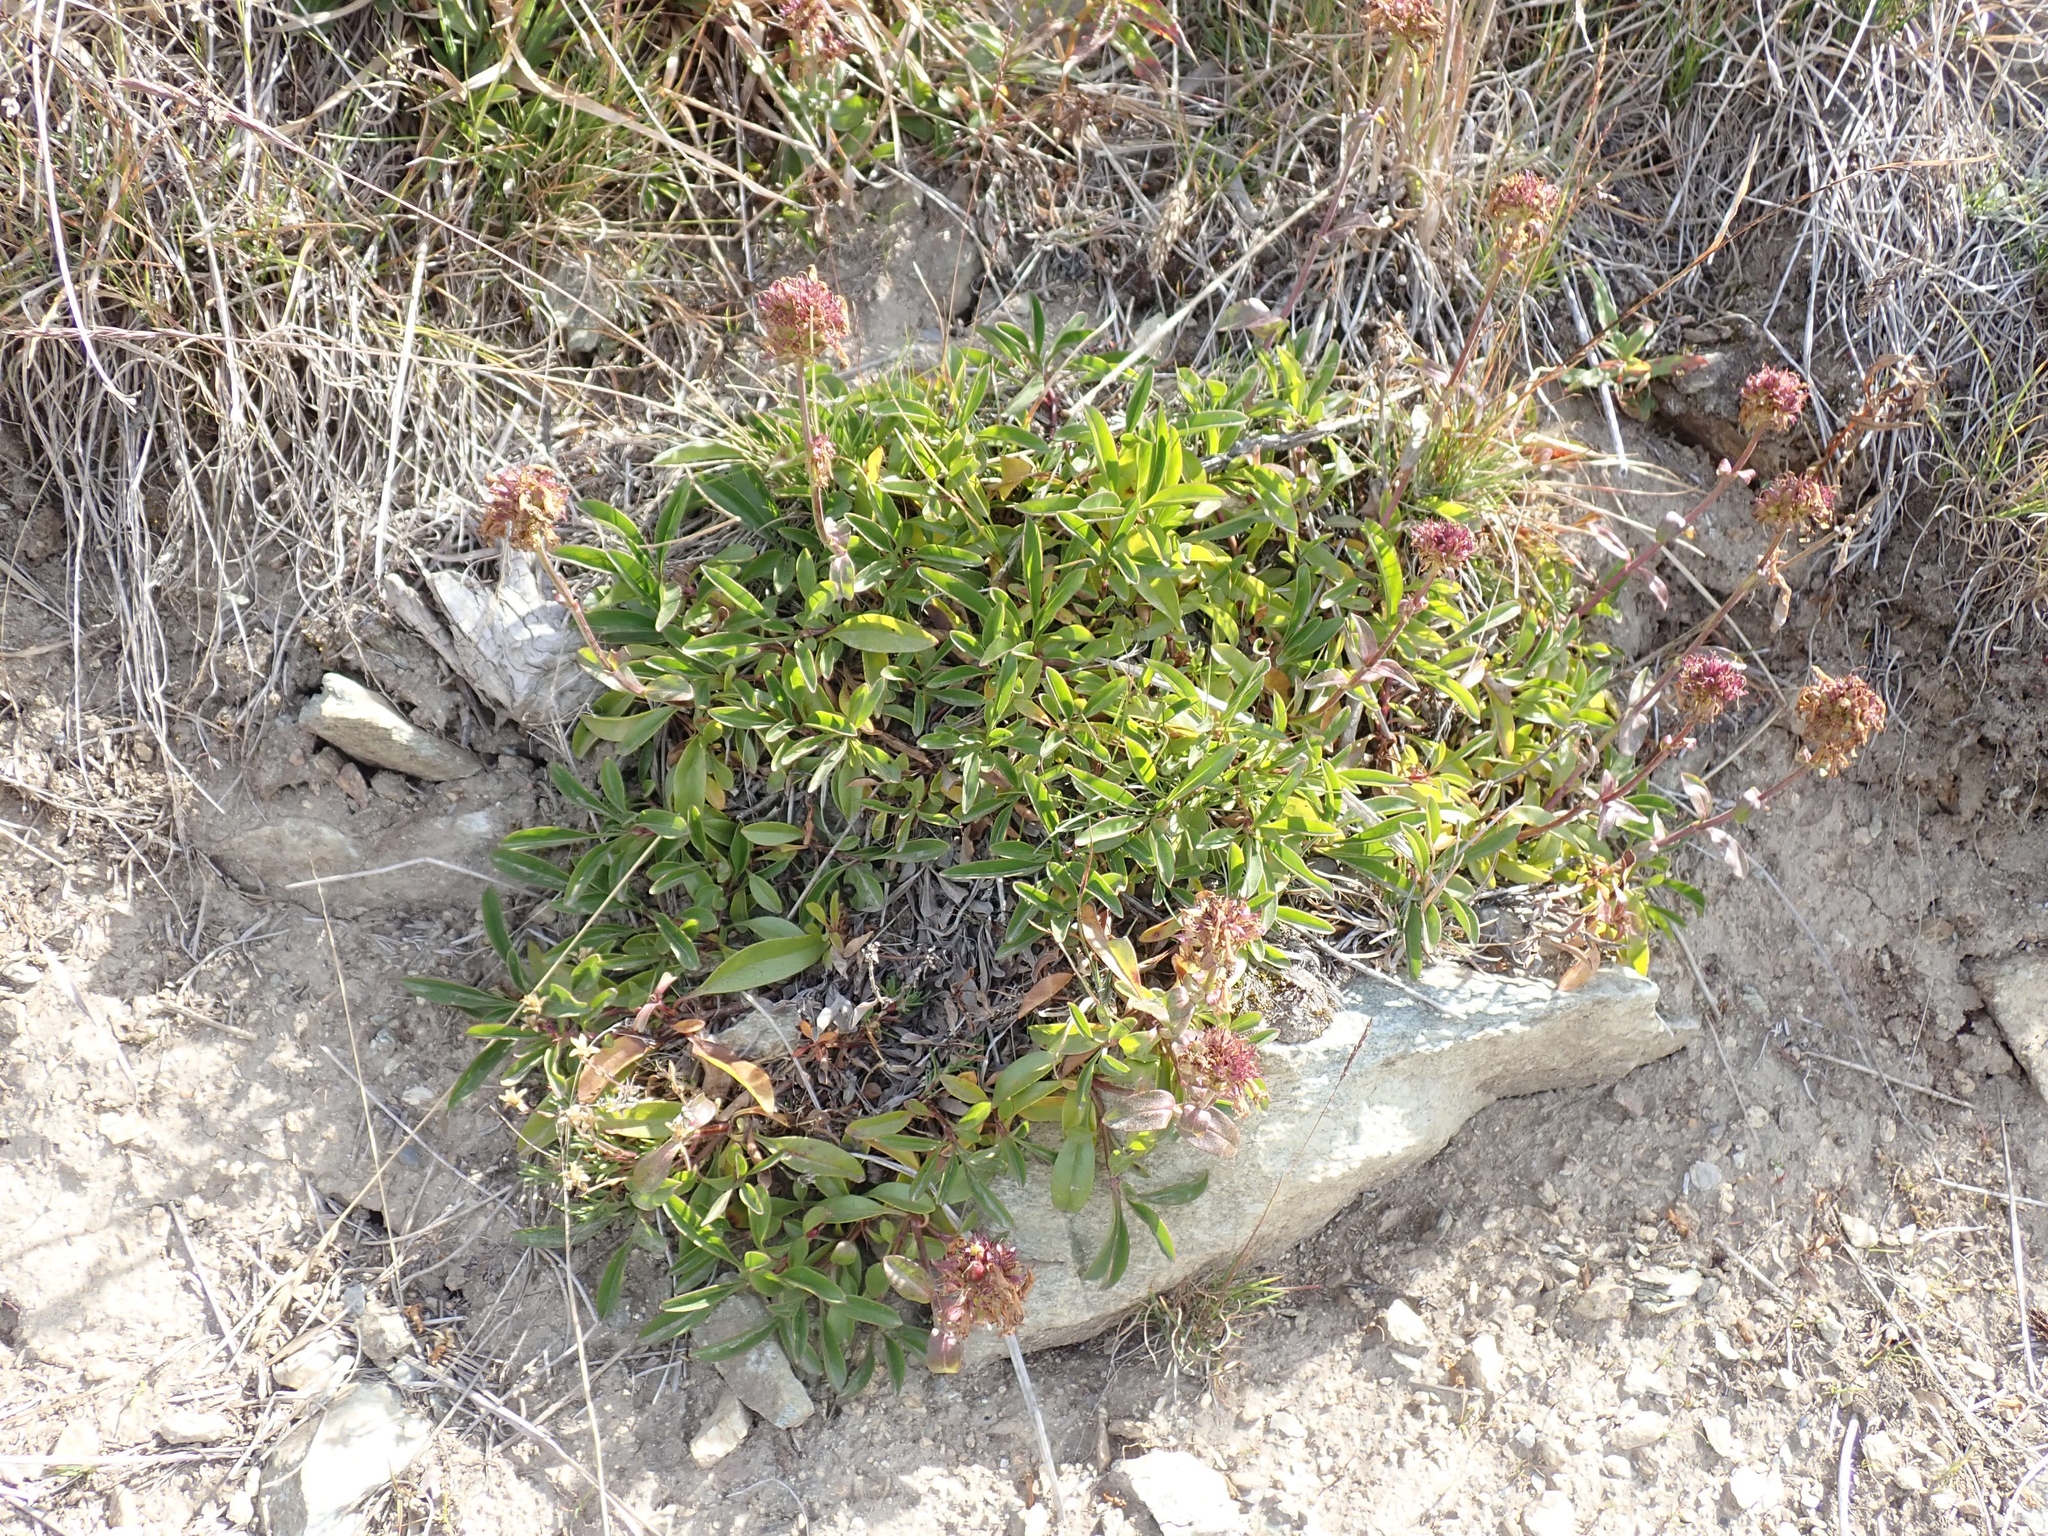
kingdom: Plantae
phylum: Tracheophyta
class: Magnoliopsida
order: Lamiales
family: Plantaginaceae
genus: Penstemon
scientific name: Penstemon procerus
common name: Small-flower penstemon
